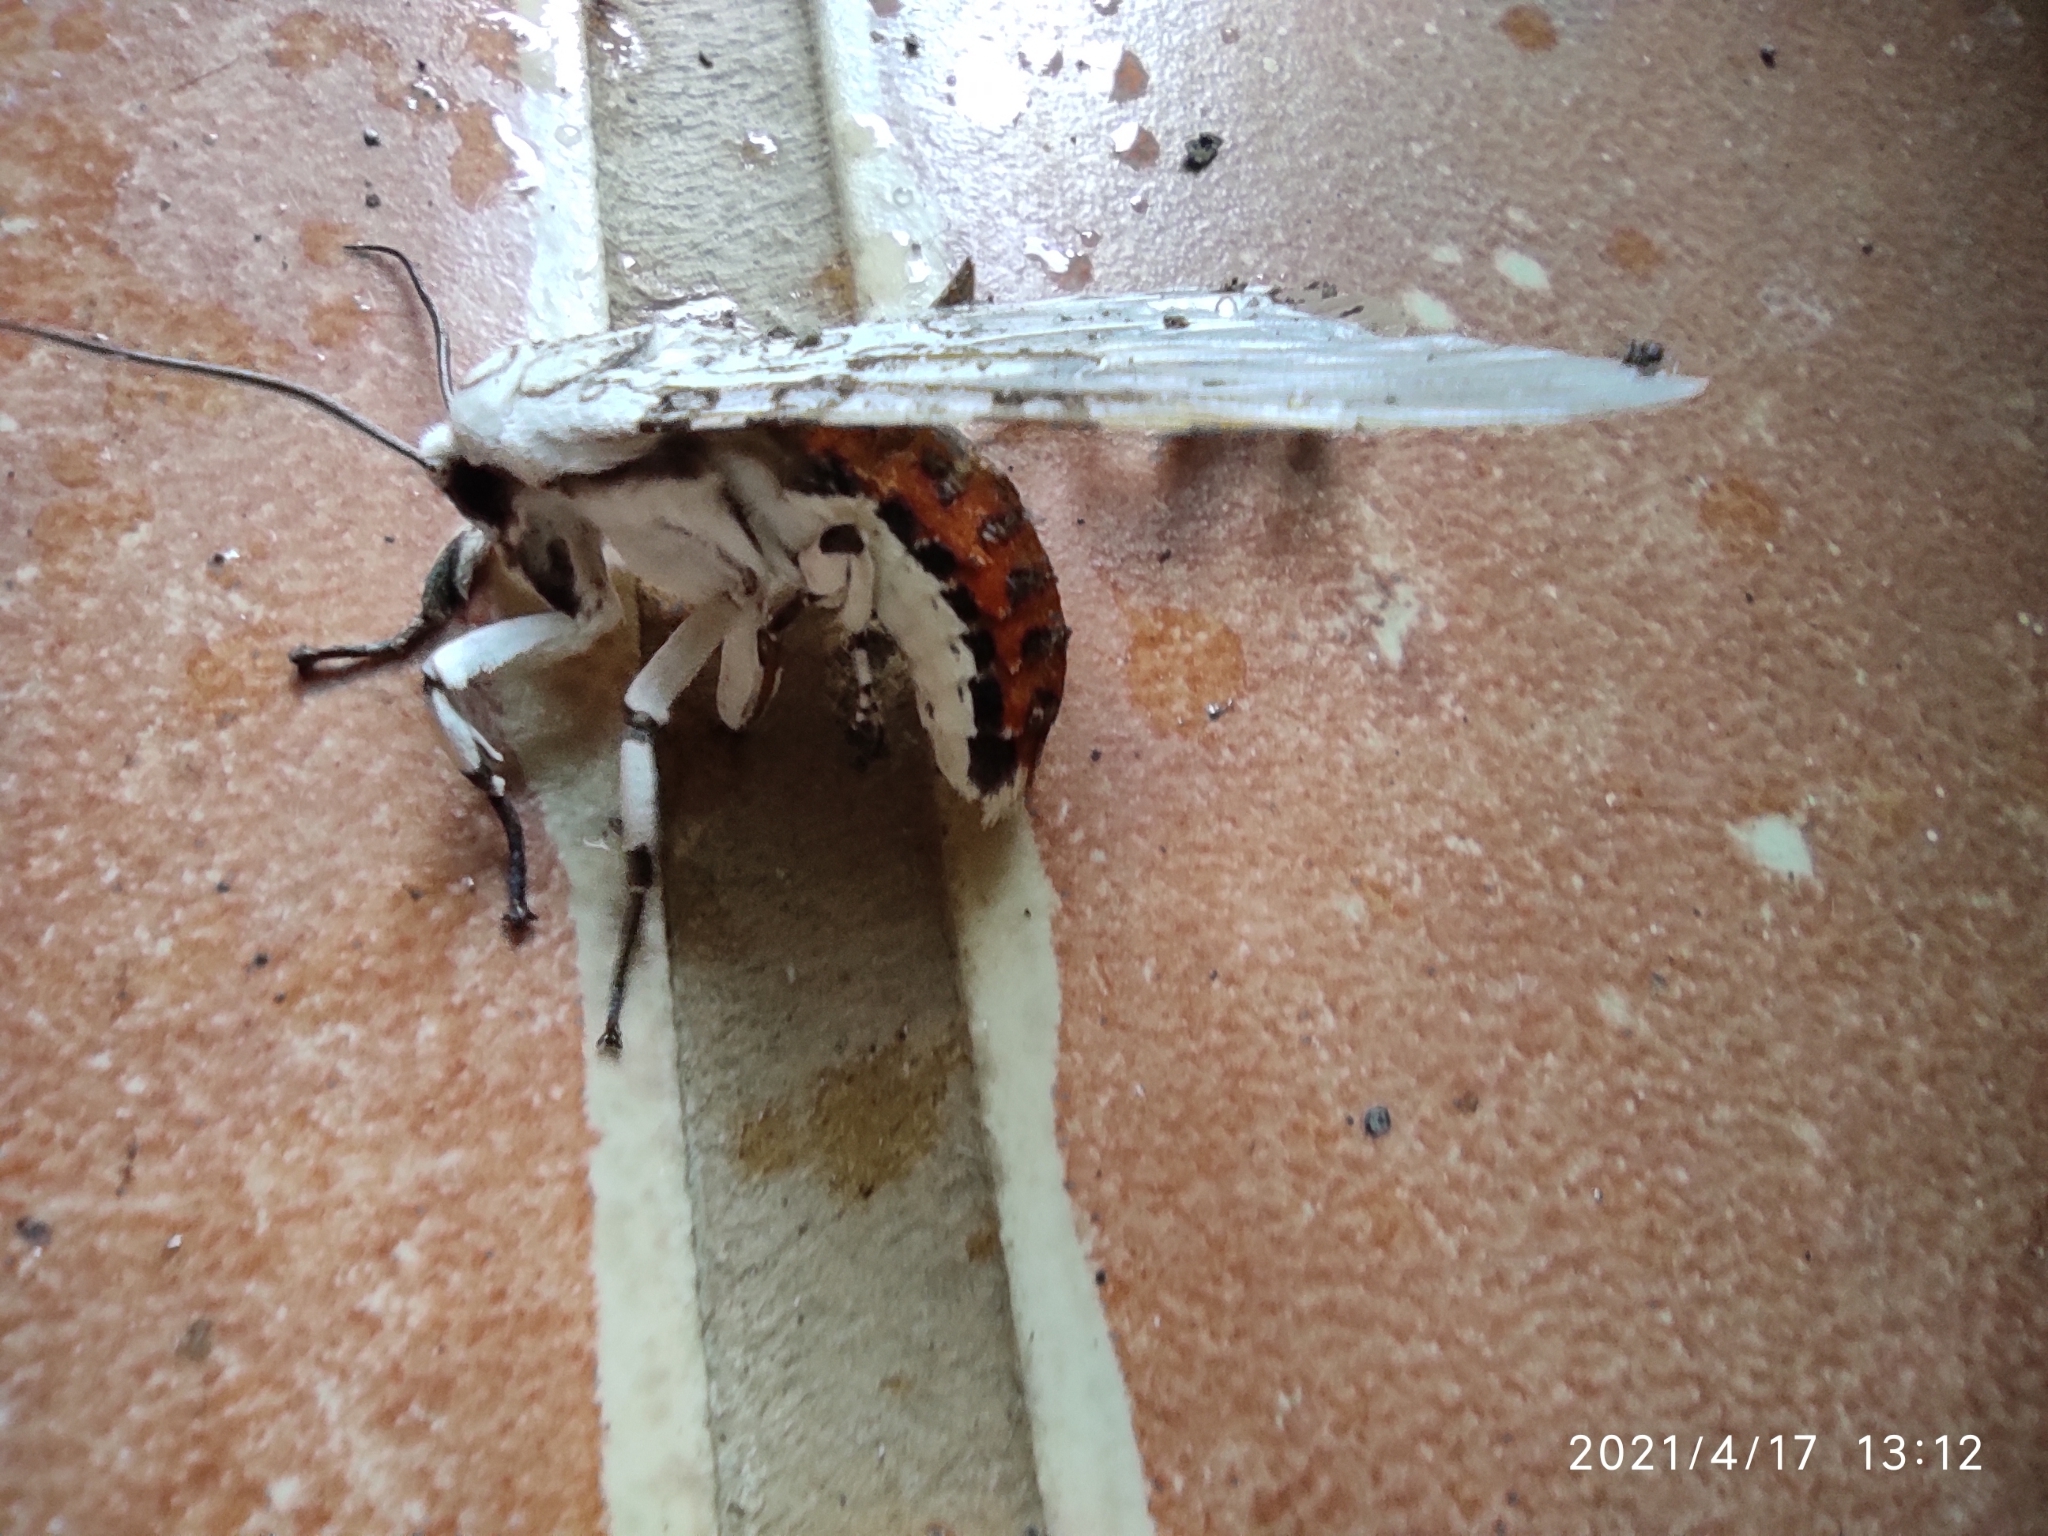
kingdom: Animalia
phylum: Arthropoda
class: Insecta
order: Lepidoptera
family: Sphingidae
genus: Erinnyis
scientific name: Erinnyis ello
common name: Ello sphinx
